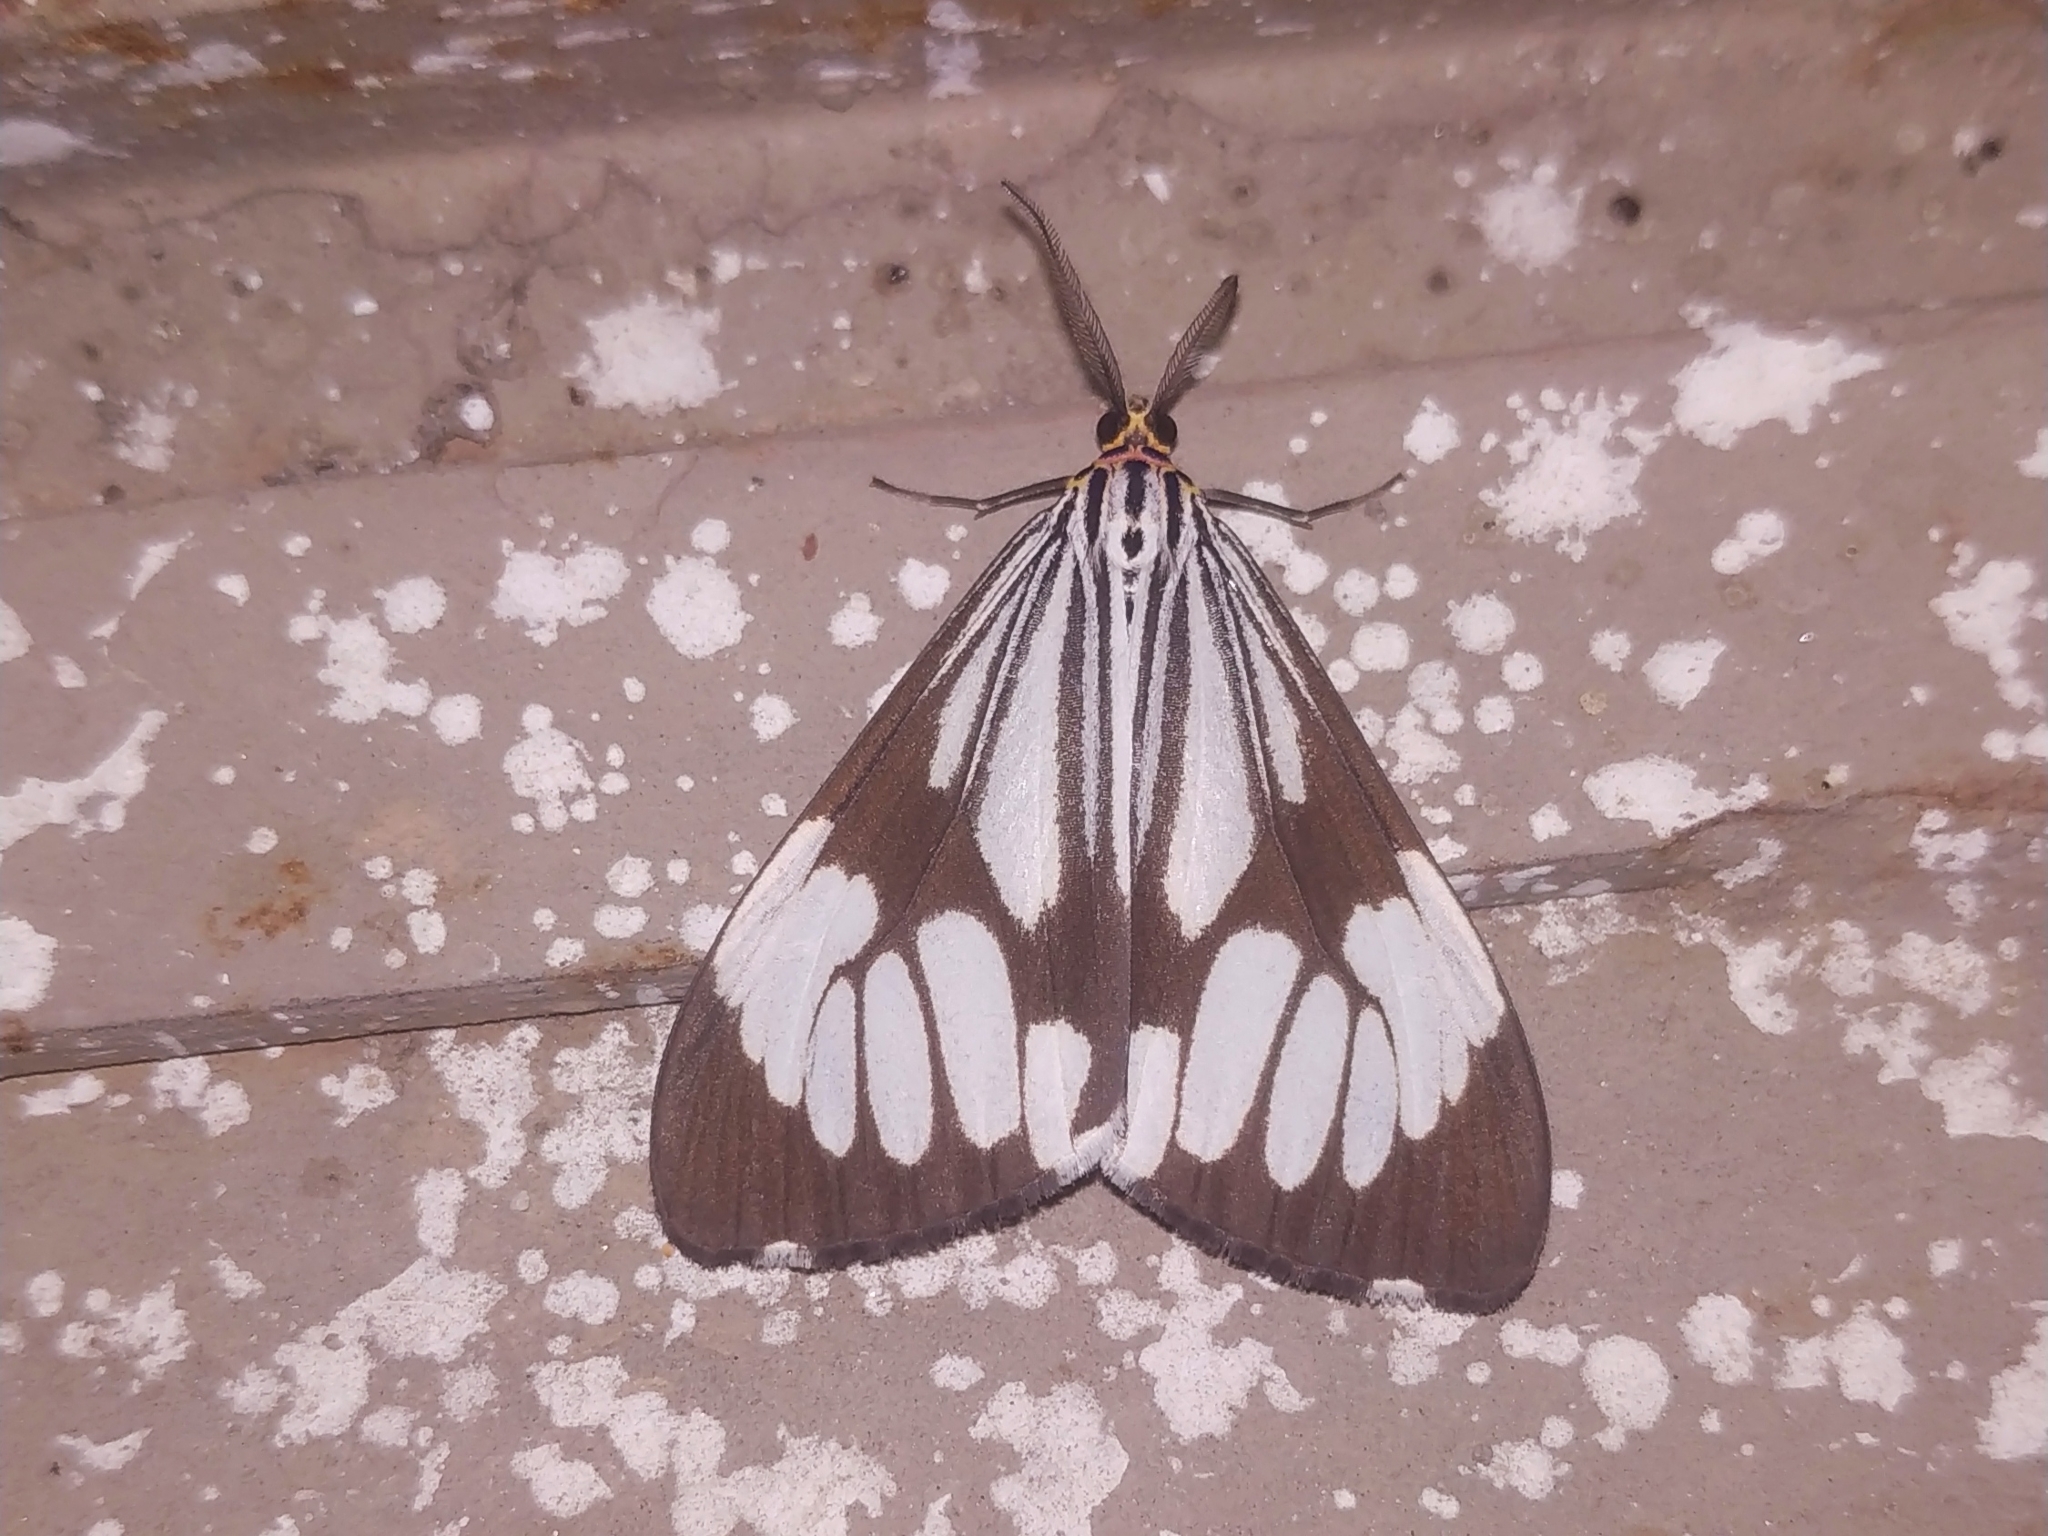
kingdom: Animalia
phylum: Arthropoda
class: Insecta
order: Lepidoptera
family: Erebidae
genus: Nyctemera
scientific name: Nyctemera coleta
